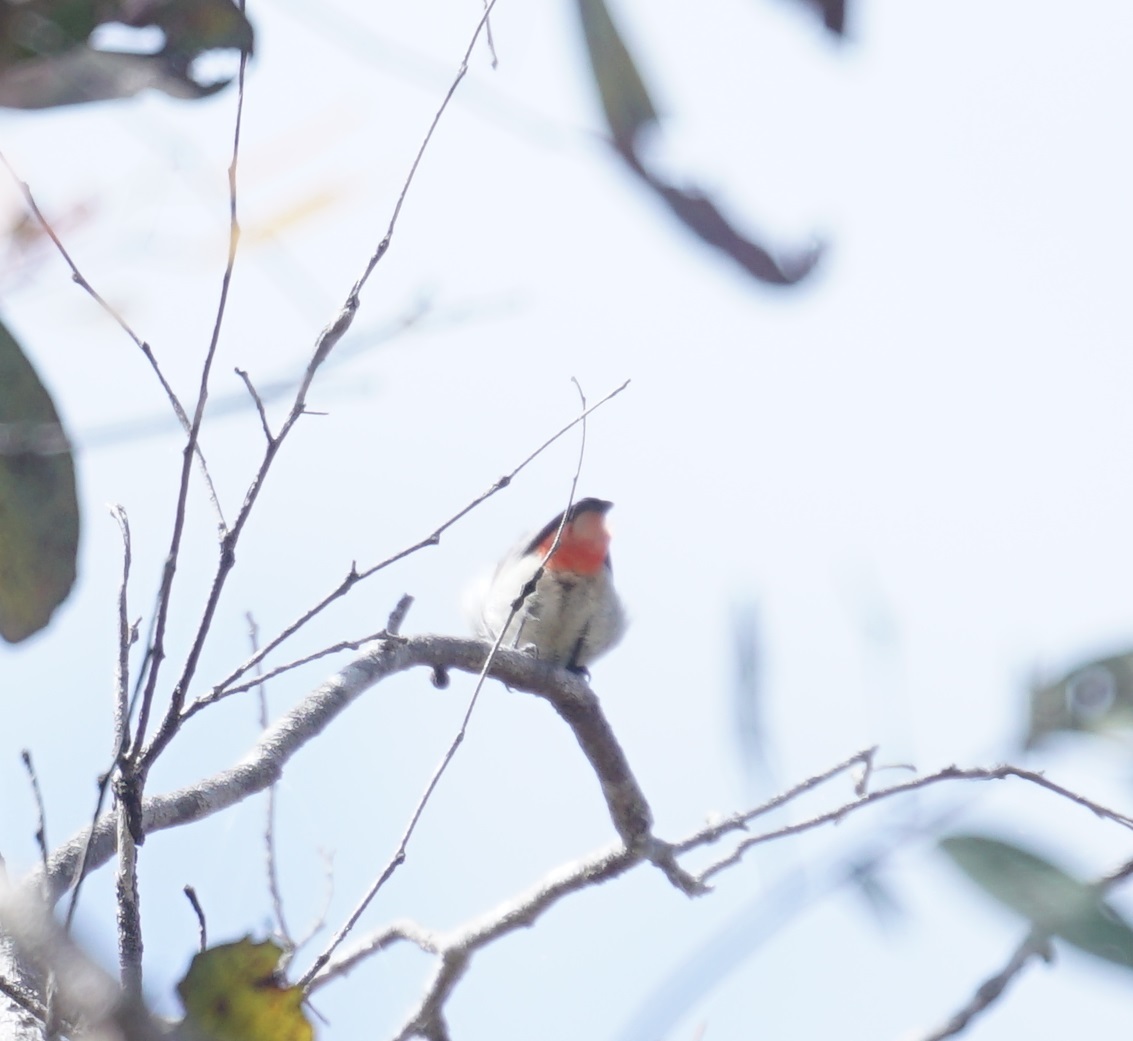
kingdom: Animalia
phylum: Chordata
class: Aves
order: Passeriformes
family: Dicaeidae
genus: Dicaeum
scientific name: Dicaeum hirundinaceum
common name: Mistletoebird
